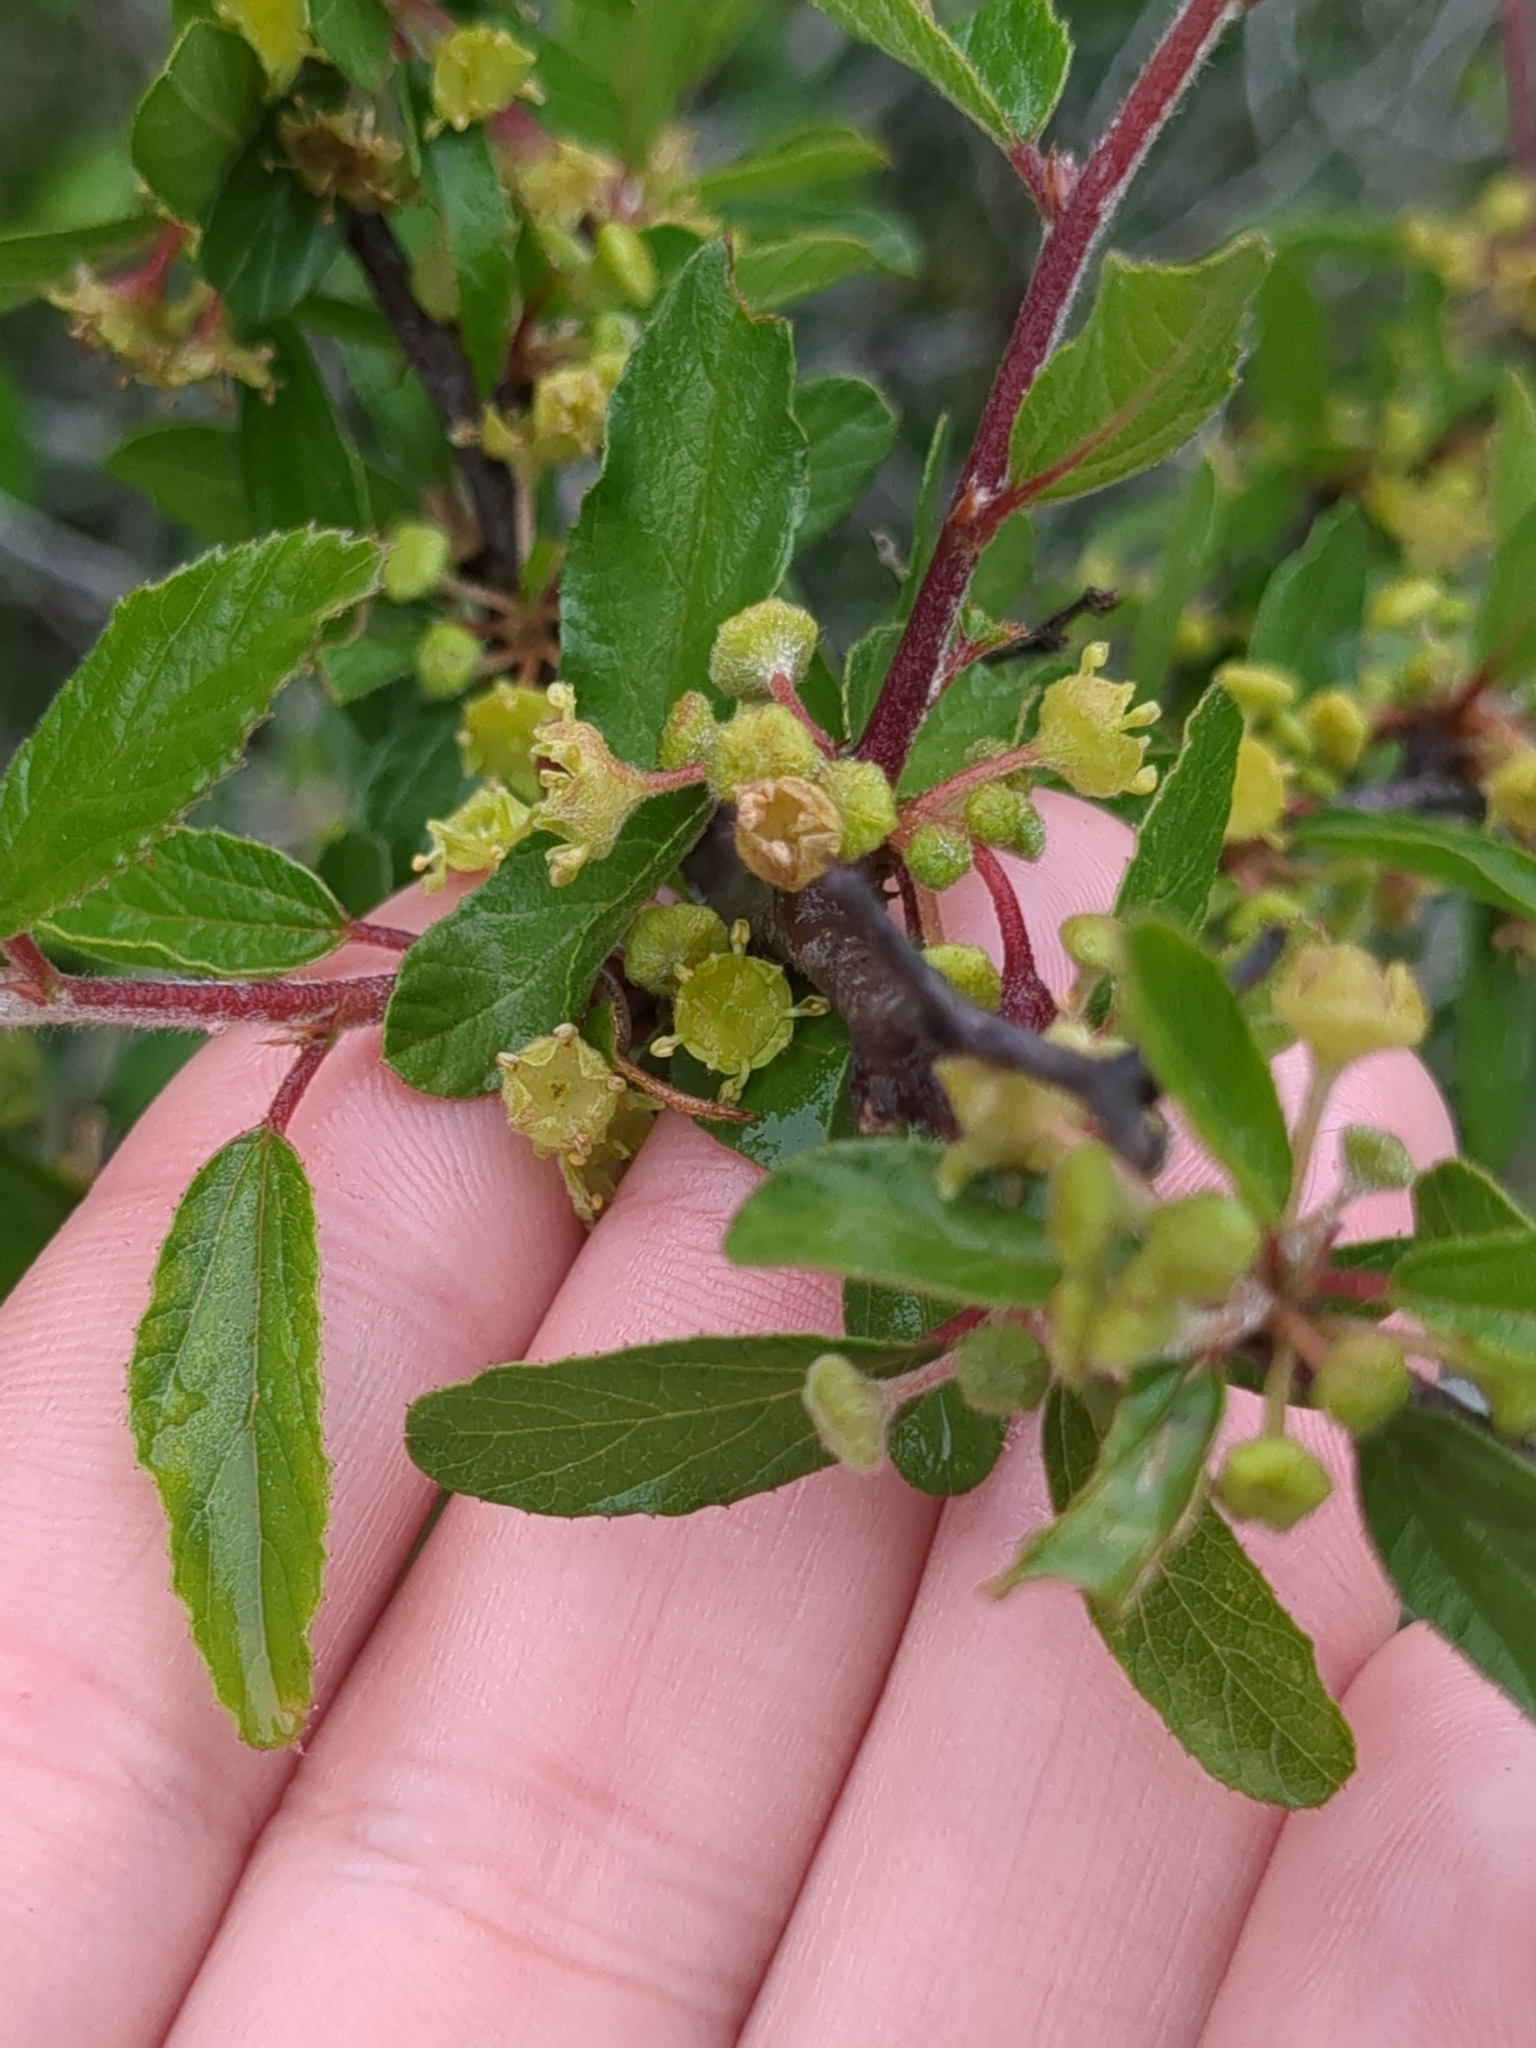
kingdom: Plantae
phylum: Tracheophyta
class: Magnoliopsida
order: Rosales
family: Rhamnaceae
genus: Colubrina
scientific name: Colubrina texensis
